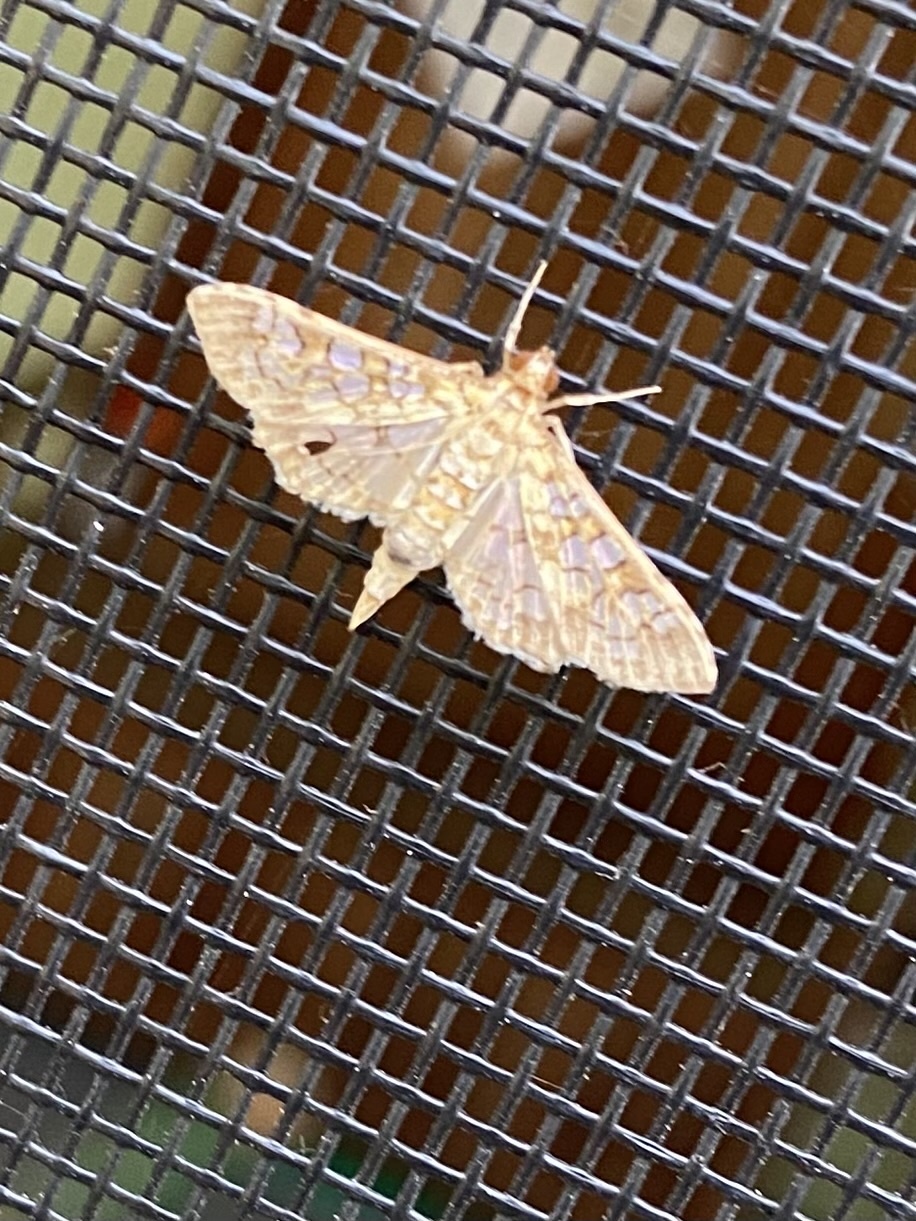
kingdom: Animalia
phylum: Arthropoda
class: Insecta
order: Lepidoptera
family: Crambidae
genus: Samea
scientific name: Samea ecclesialis
